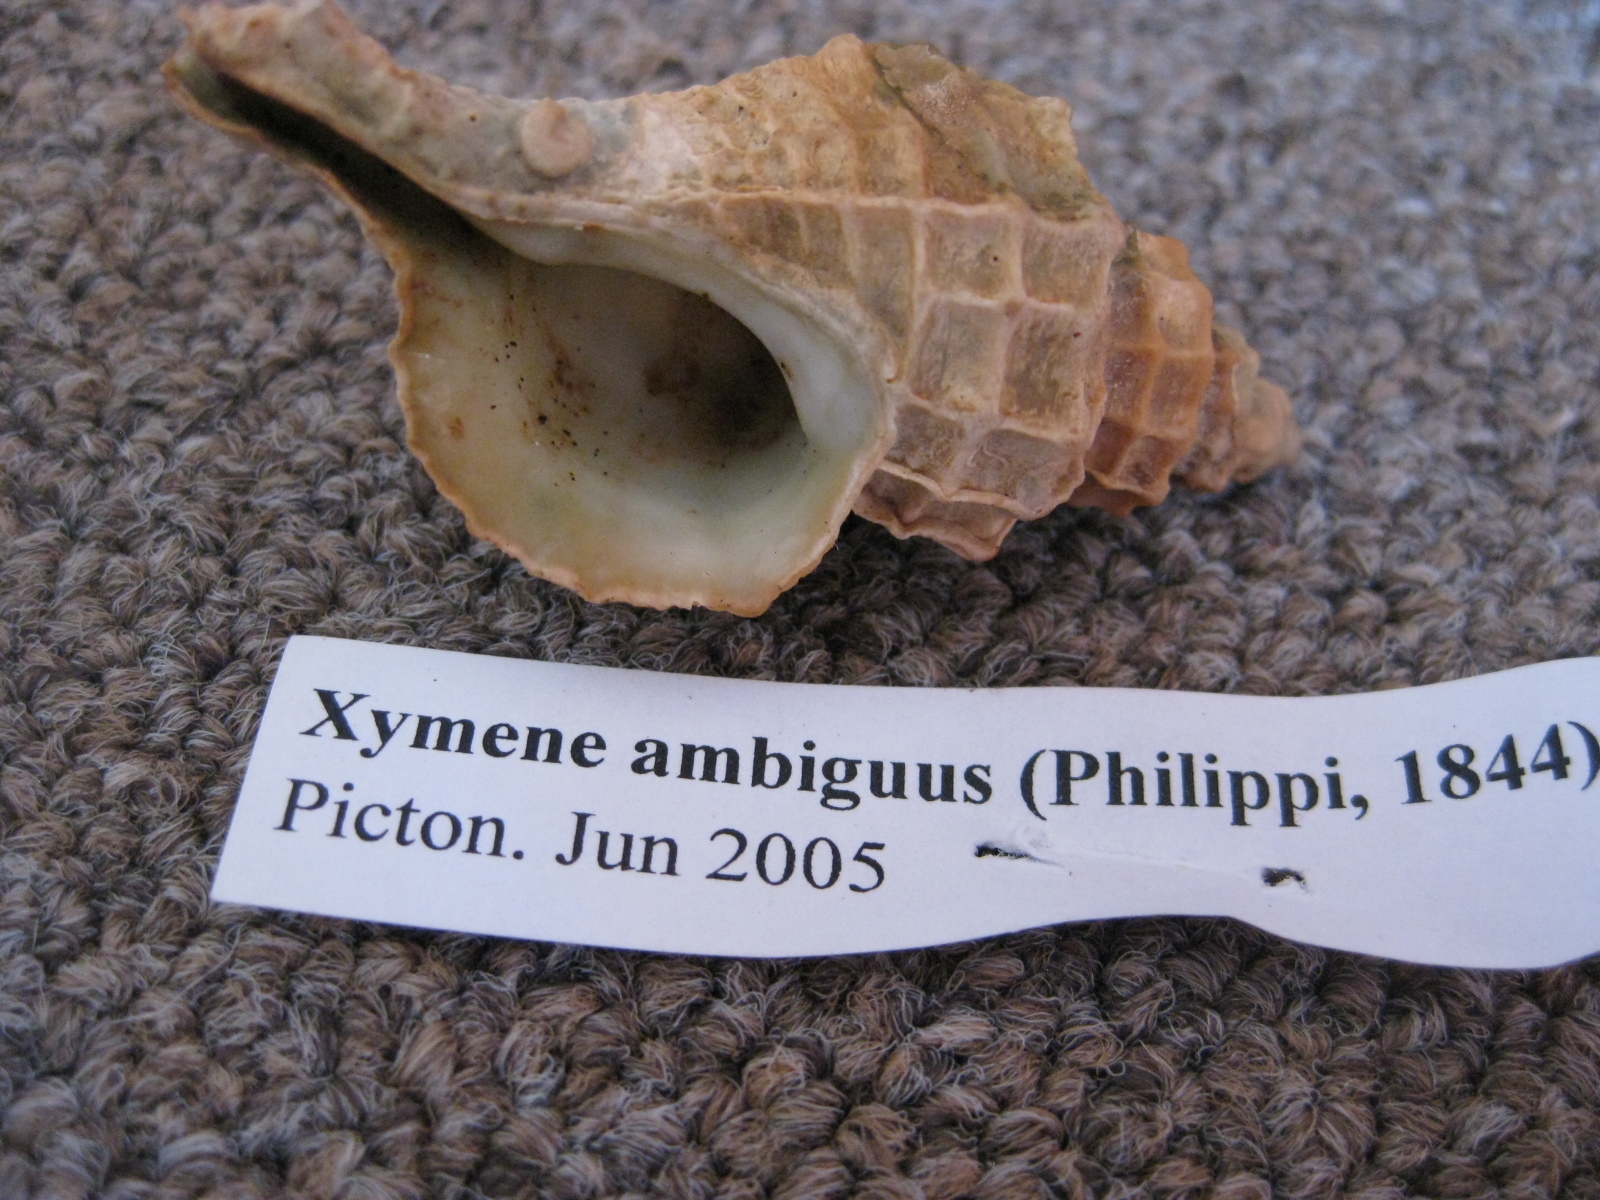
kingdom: Animalia
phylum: Mollusca
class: Gastropoda
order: Neogastropoda
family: Muricidae
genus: Zeatrophon
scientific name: Zeatrophon ambiguus
